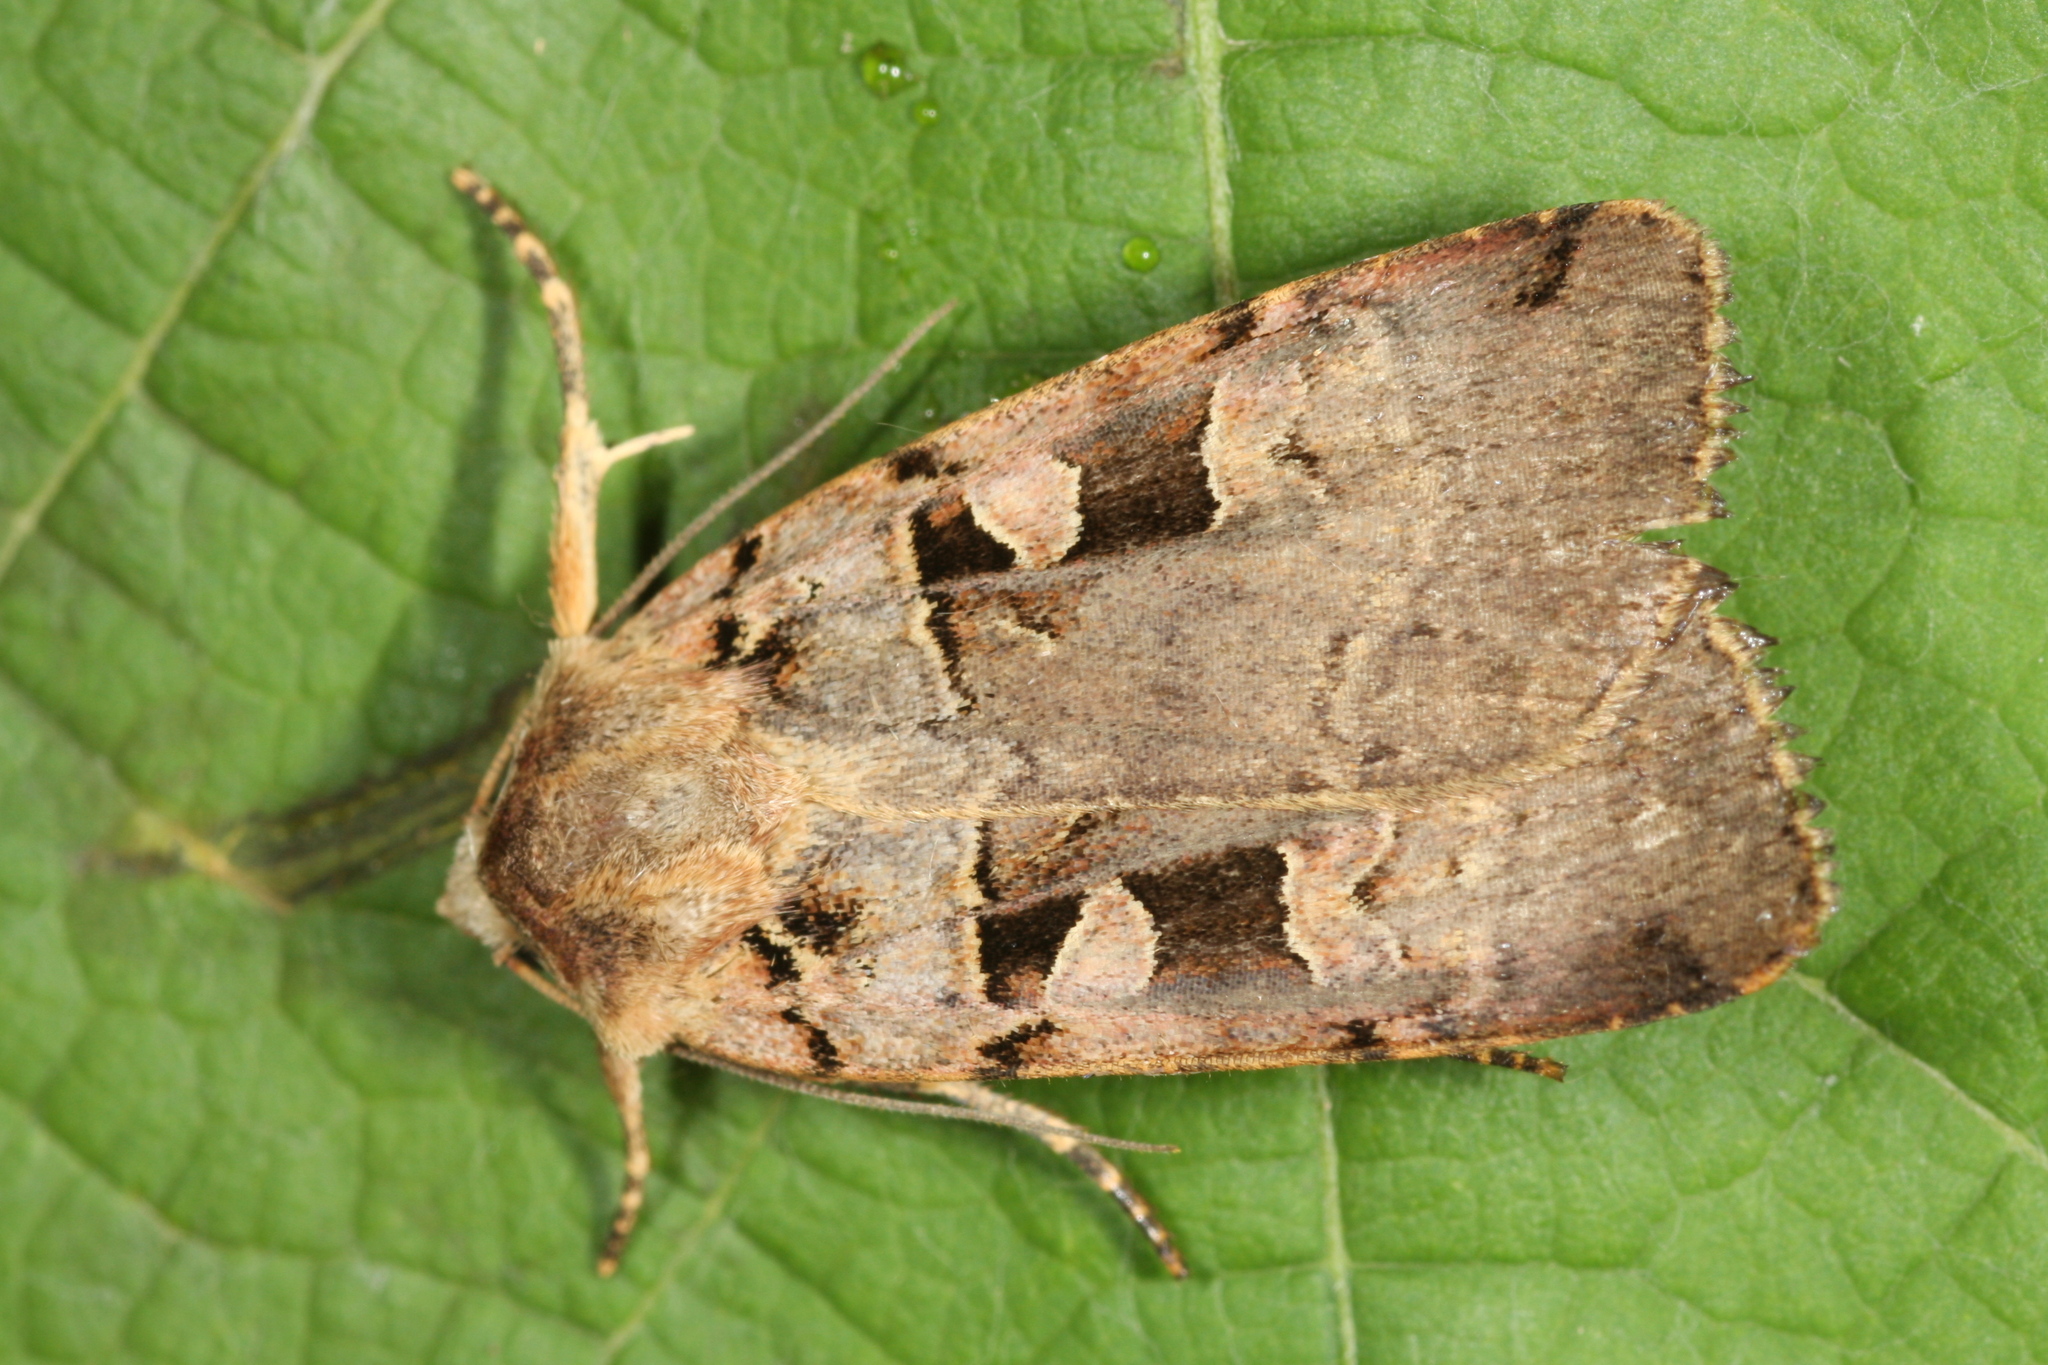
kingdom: Animalia
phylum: Arthropoda
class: Insecta
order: Lepidoptera
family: Noctuidae
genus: Xestia
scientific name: Xestia triangulum
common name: Double square-spot
